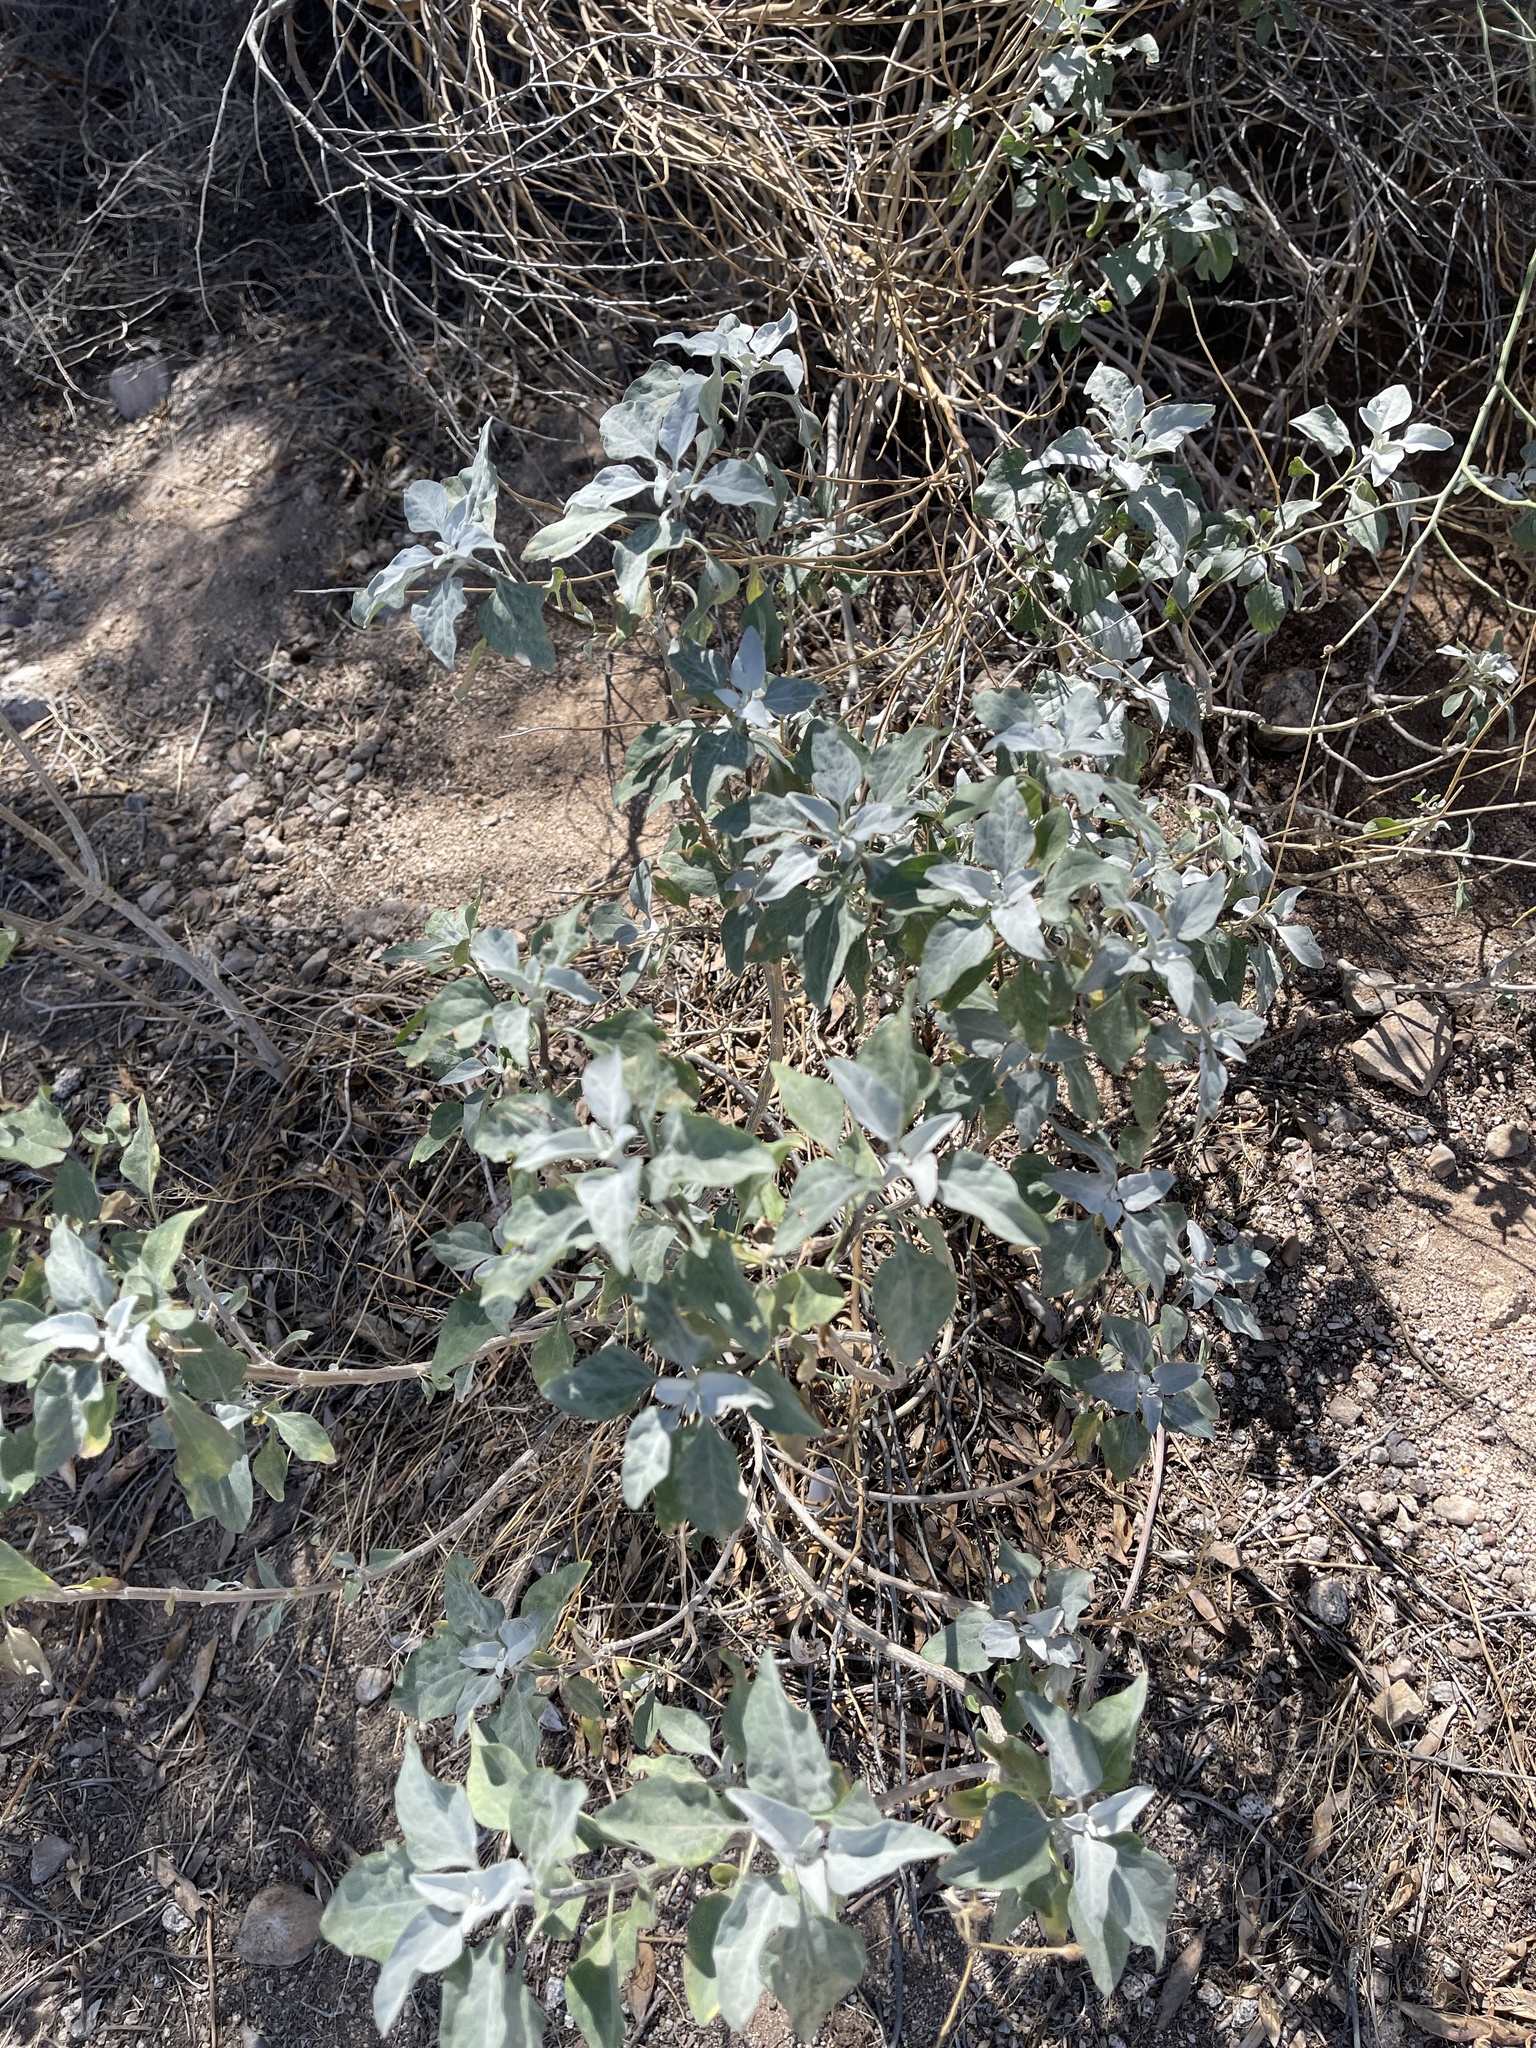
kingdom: Plantae
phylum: Tracheophyta
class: Magnoliopsida
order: Asterales
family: Asteraceae
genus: Encelia
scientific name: Encelia farinosa
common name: Brittlebush
